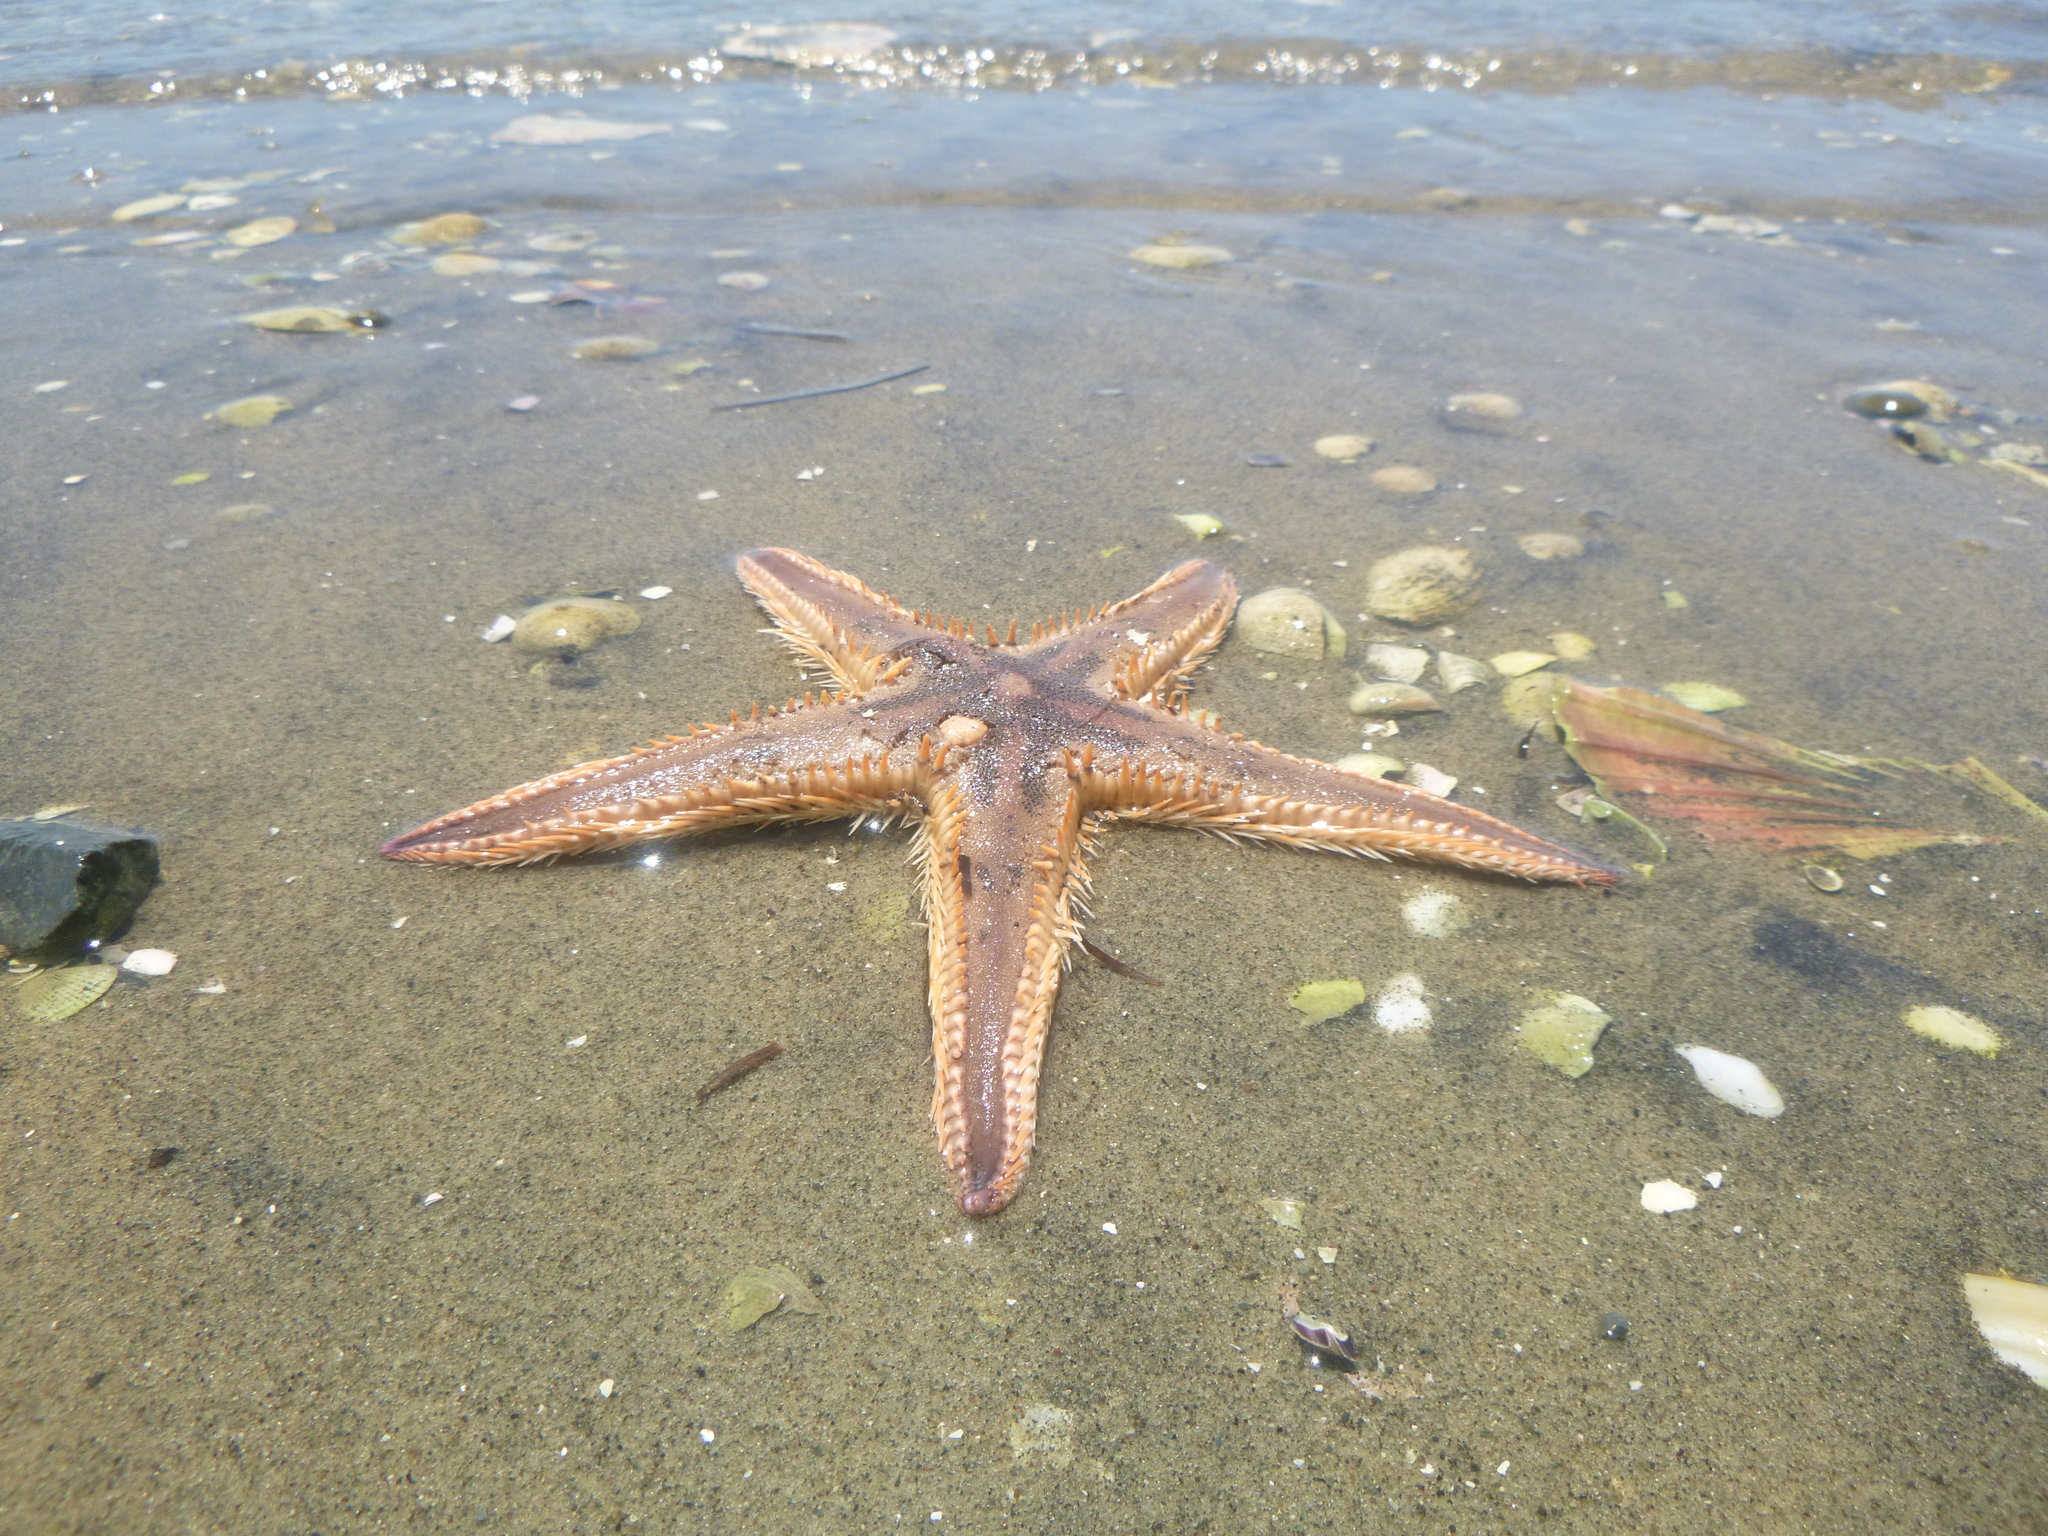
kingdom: Animalia
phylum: Echinodermata
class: Asteroidea
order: Paxillosida
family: Astropectinidae
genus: Astropecten
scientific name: Astropecten polyacanthus
